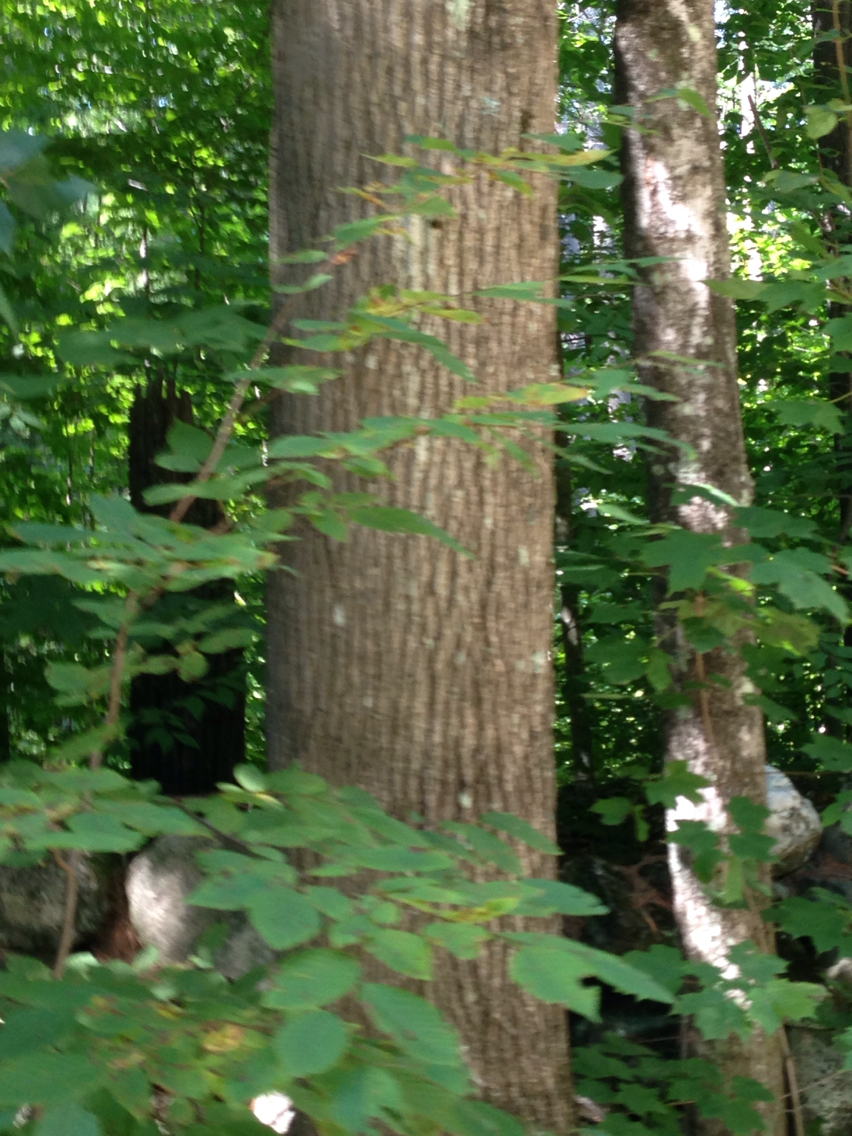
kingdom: Plantae
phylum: Tracheophyta
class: Magnoliopsida
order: Fagales
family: Fagaceae
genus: Fagus
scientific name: Fagus grandifolia
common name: American beech
